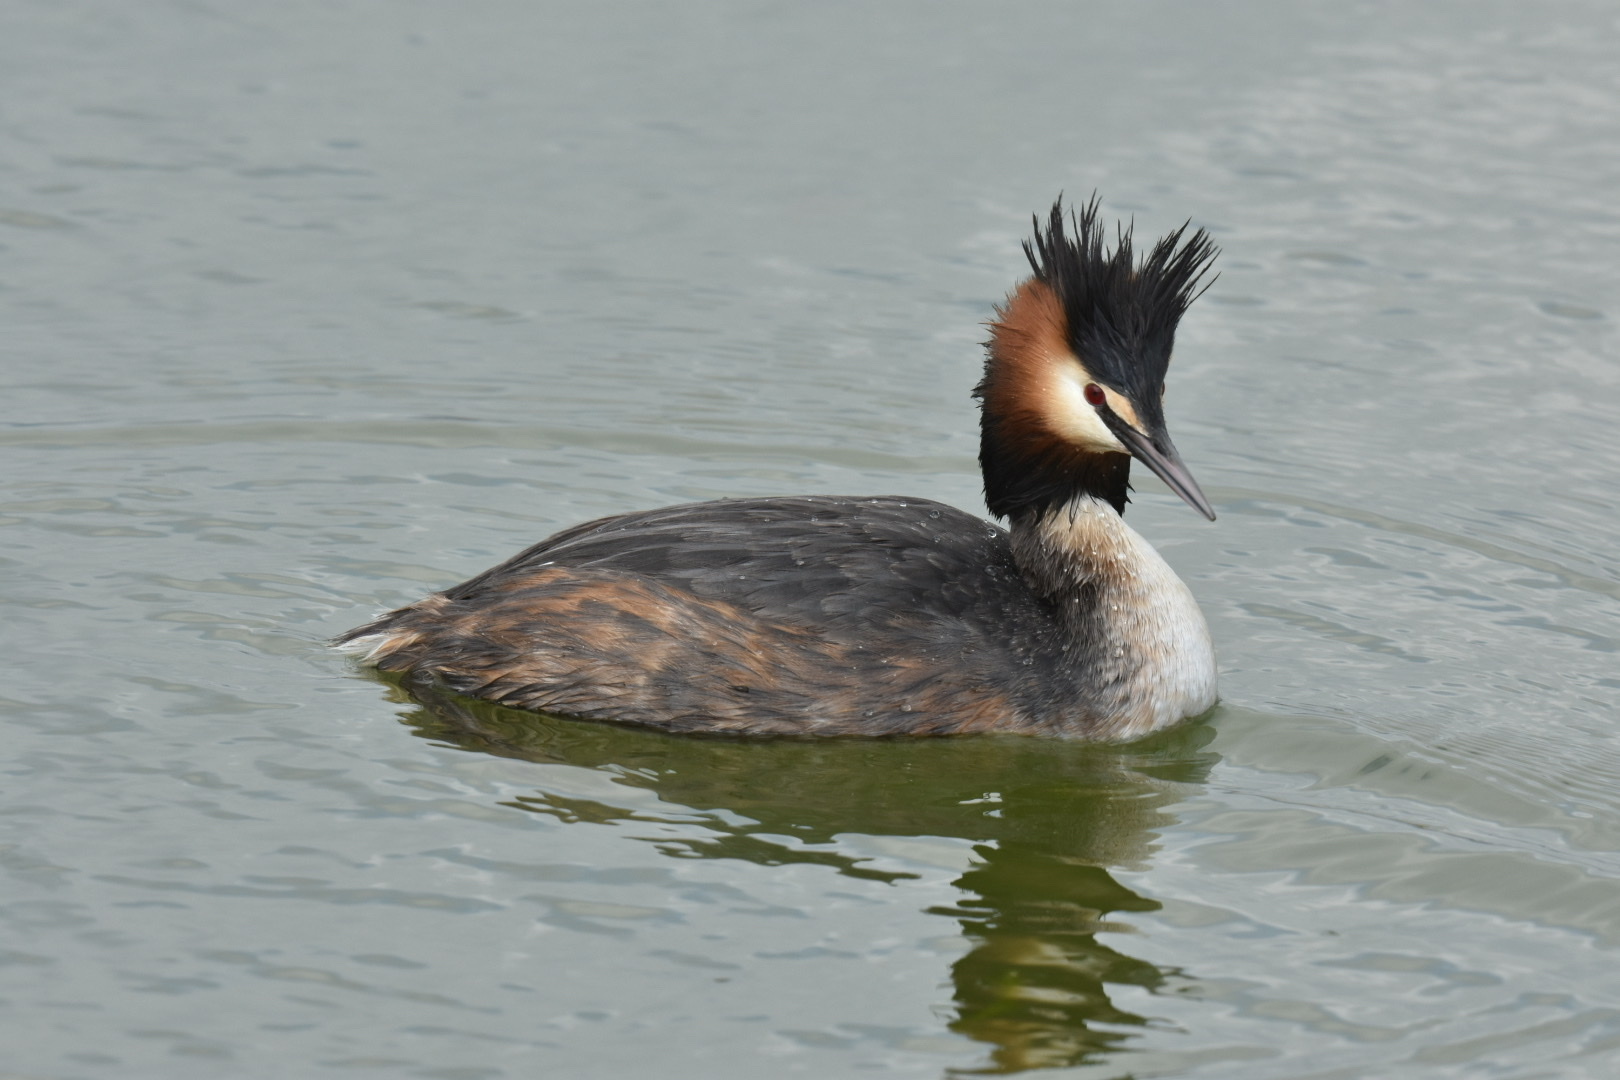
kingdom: Animalia
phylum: Chordata
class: Aves
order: Podicipediformes
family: Podicipedidae
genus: Podiceps
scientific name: Podiceps cristatus
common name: Great crested grebe
